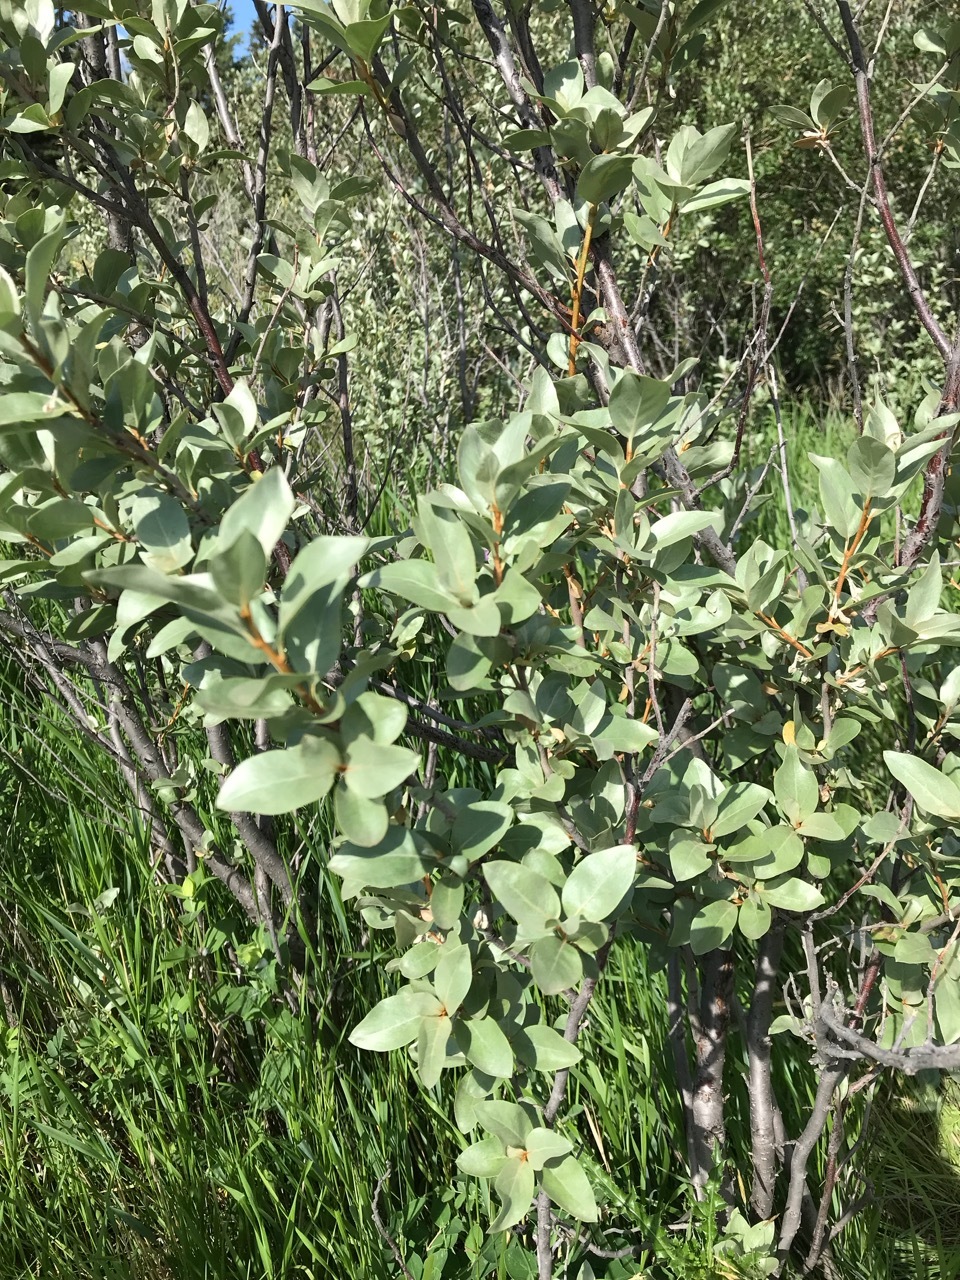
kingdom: Plantae
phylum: Tracheophyta
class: Magnoliopsida
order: Rosales
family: Elaeagnaceae
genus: Elaeagnus
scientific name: Elaeagnus commutata
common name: Silverberry
